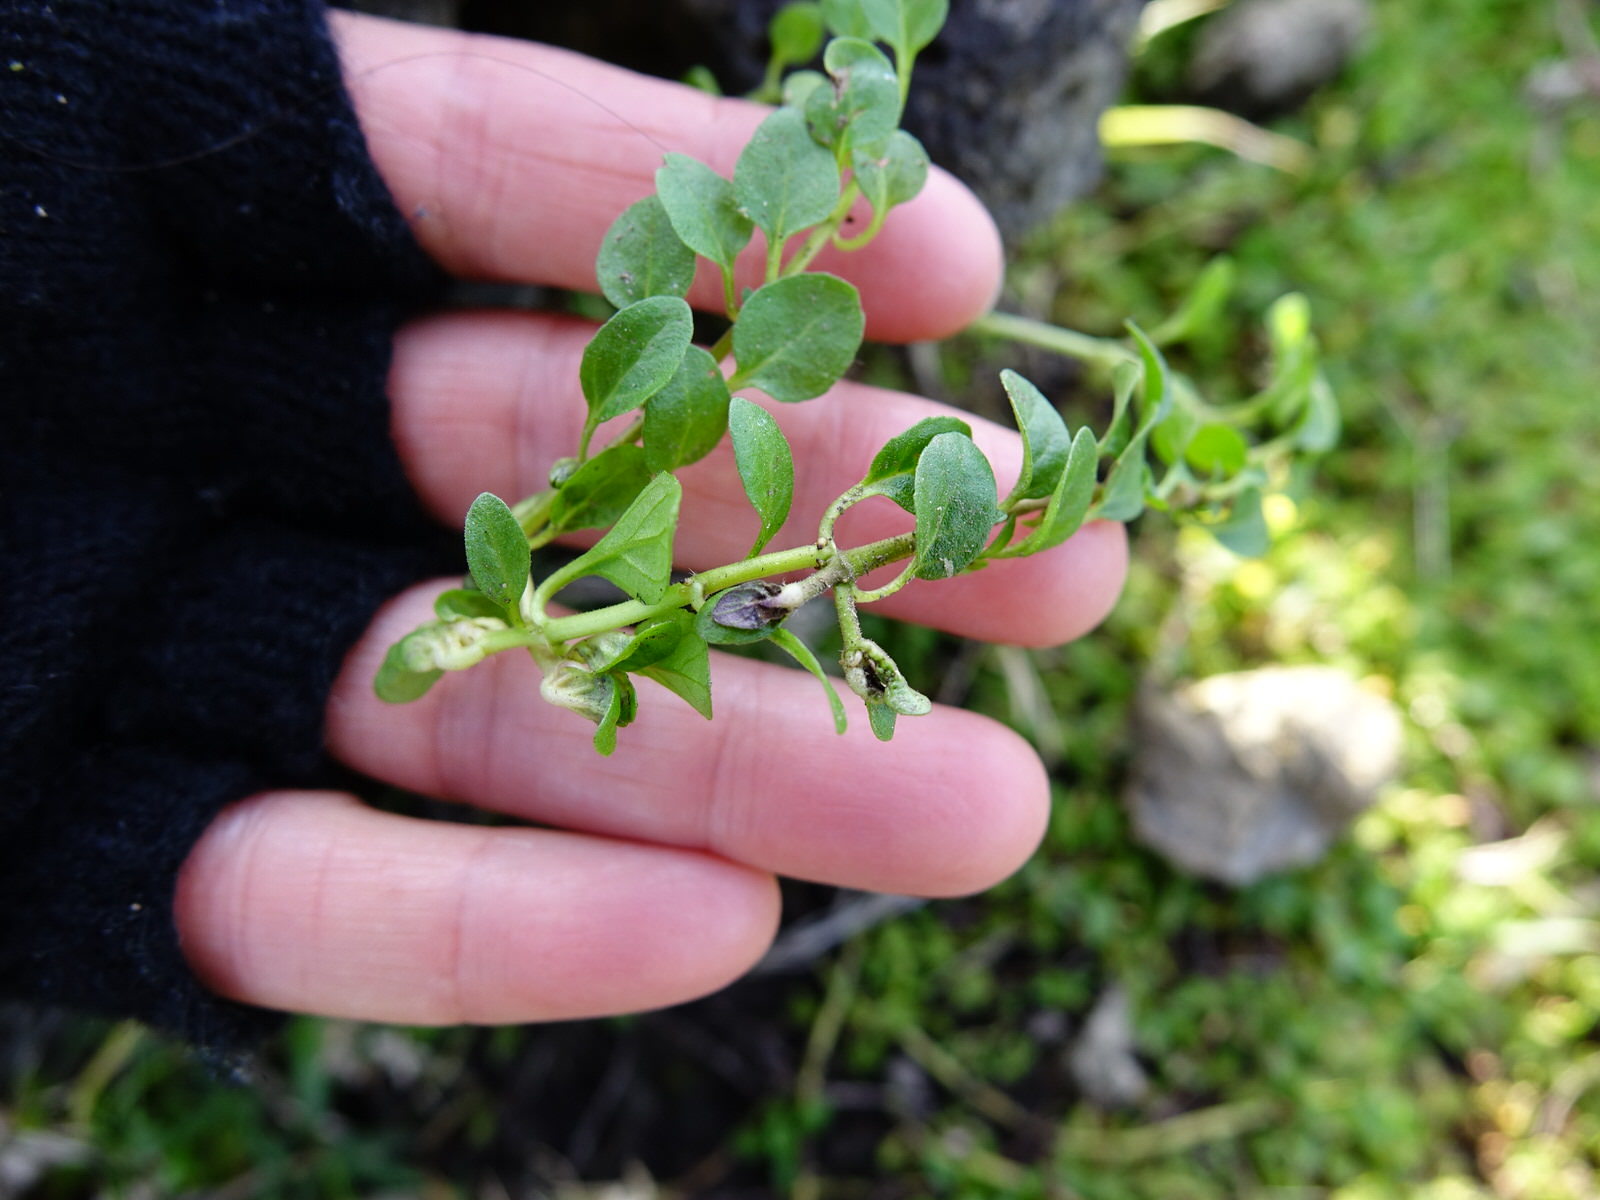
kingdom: Plantae
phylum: Tracheophyta
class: Magnoliopsida
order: Solanales
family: Solanaceae
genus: Salpichroa
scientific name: Salpichroa origanifolia
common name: Lily-of-the-valley-vine
